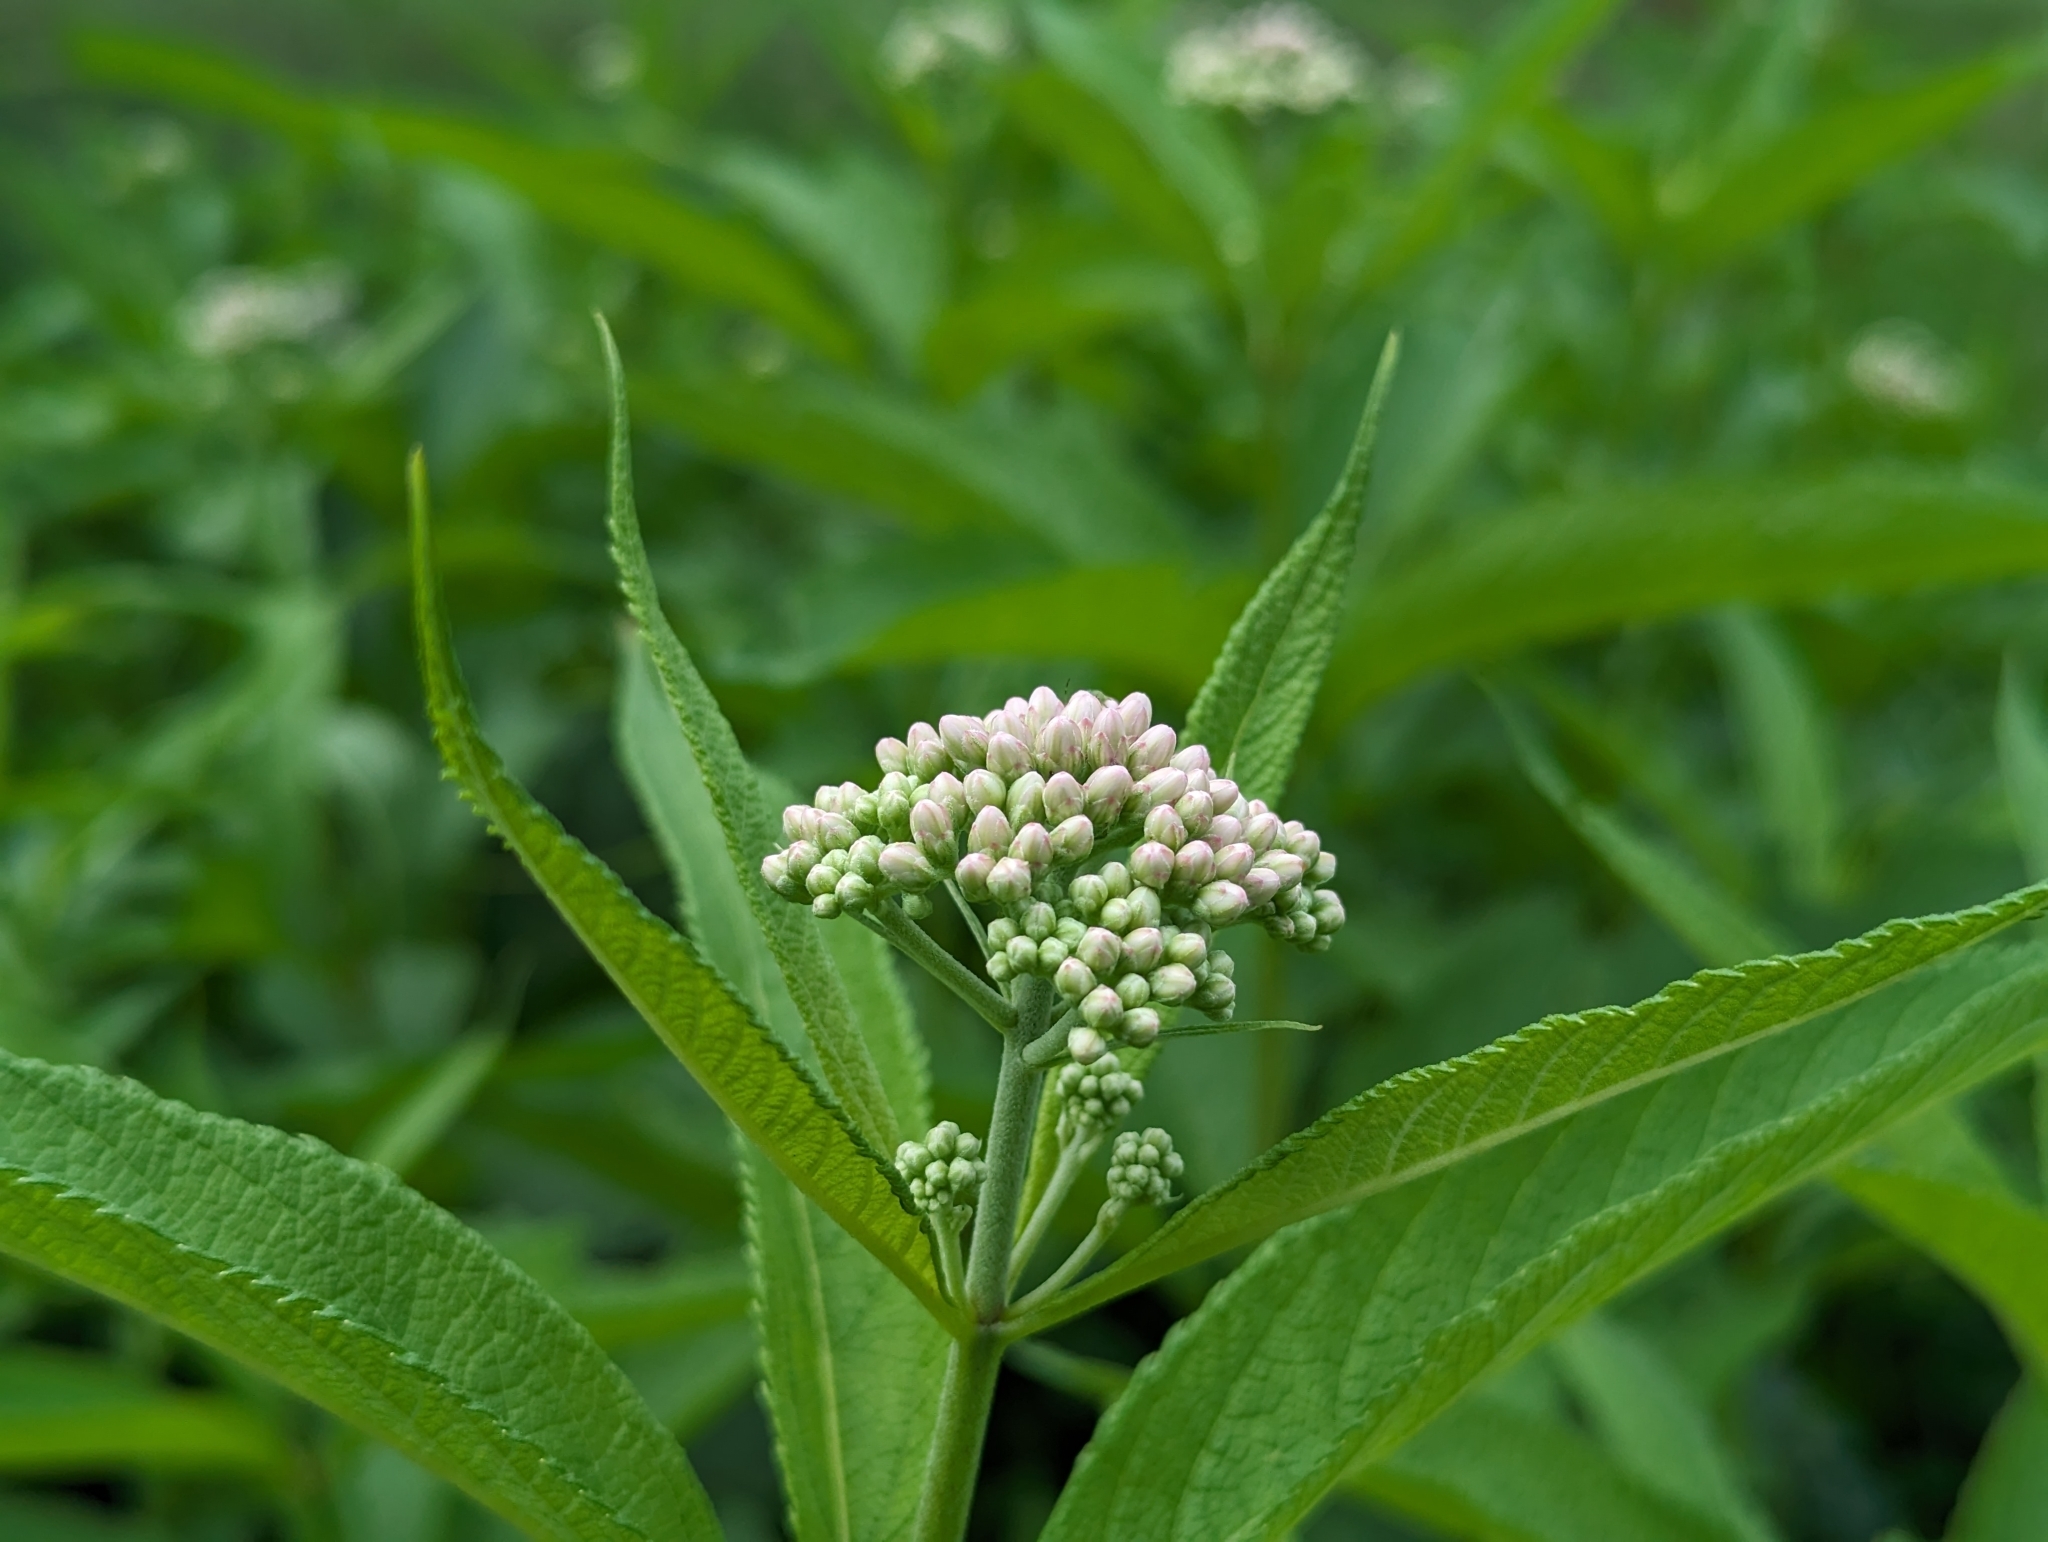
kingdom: Plantae
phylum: Tracheophyta
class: Magnoliopsida
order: Asterales
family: Asteraceae
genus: Eutrochium
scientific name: Eutrochium maculatum
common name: Spotted joe pye weed
